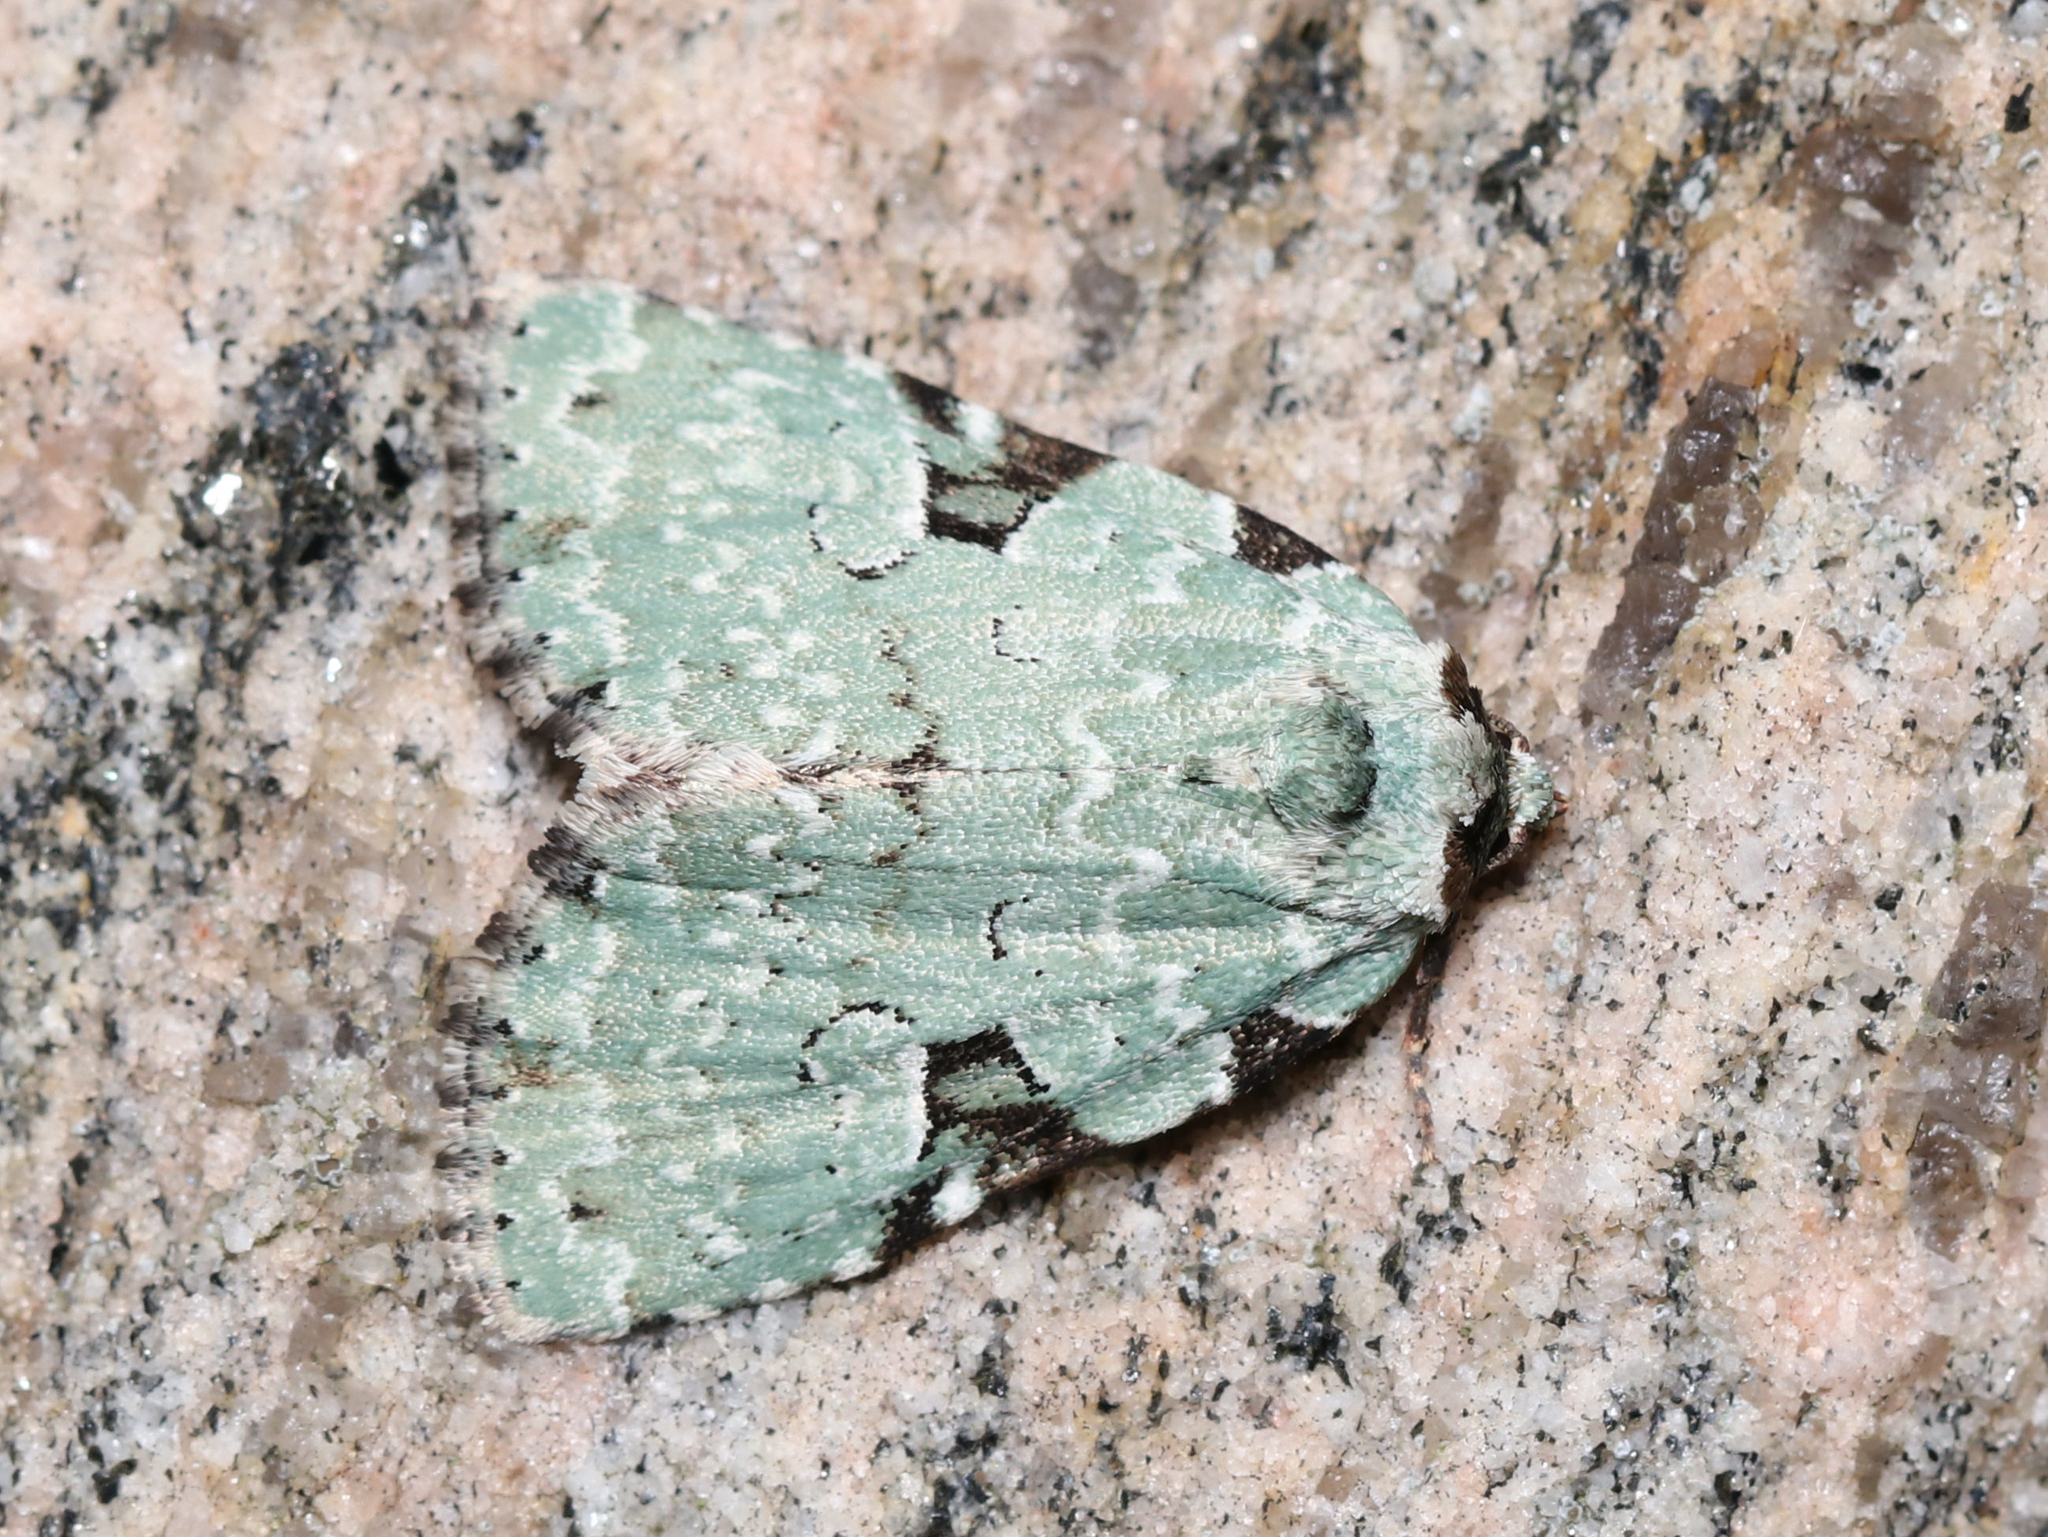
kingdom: Animalia
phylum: Arthropoda
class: Insecta
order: Lepidoptera
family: Noctuidae
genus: Leuconycta
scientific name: Leuconycta diphteroides
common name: Green leuconycta moth
